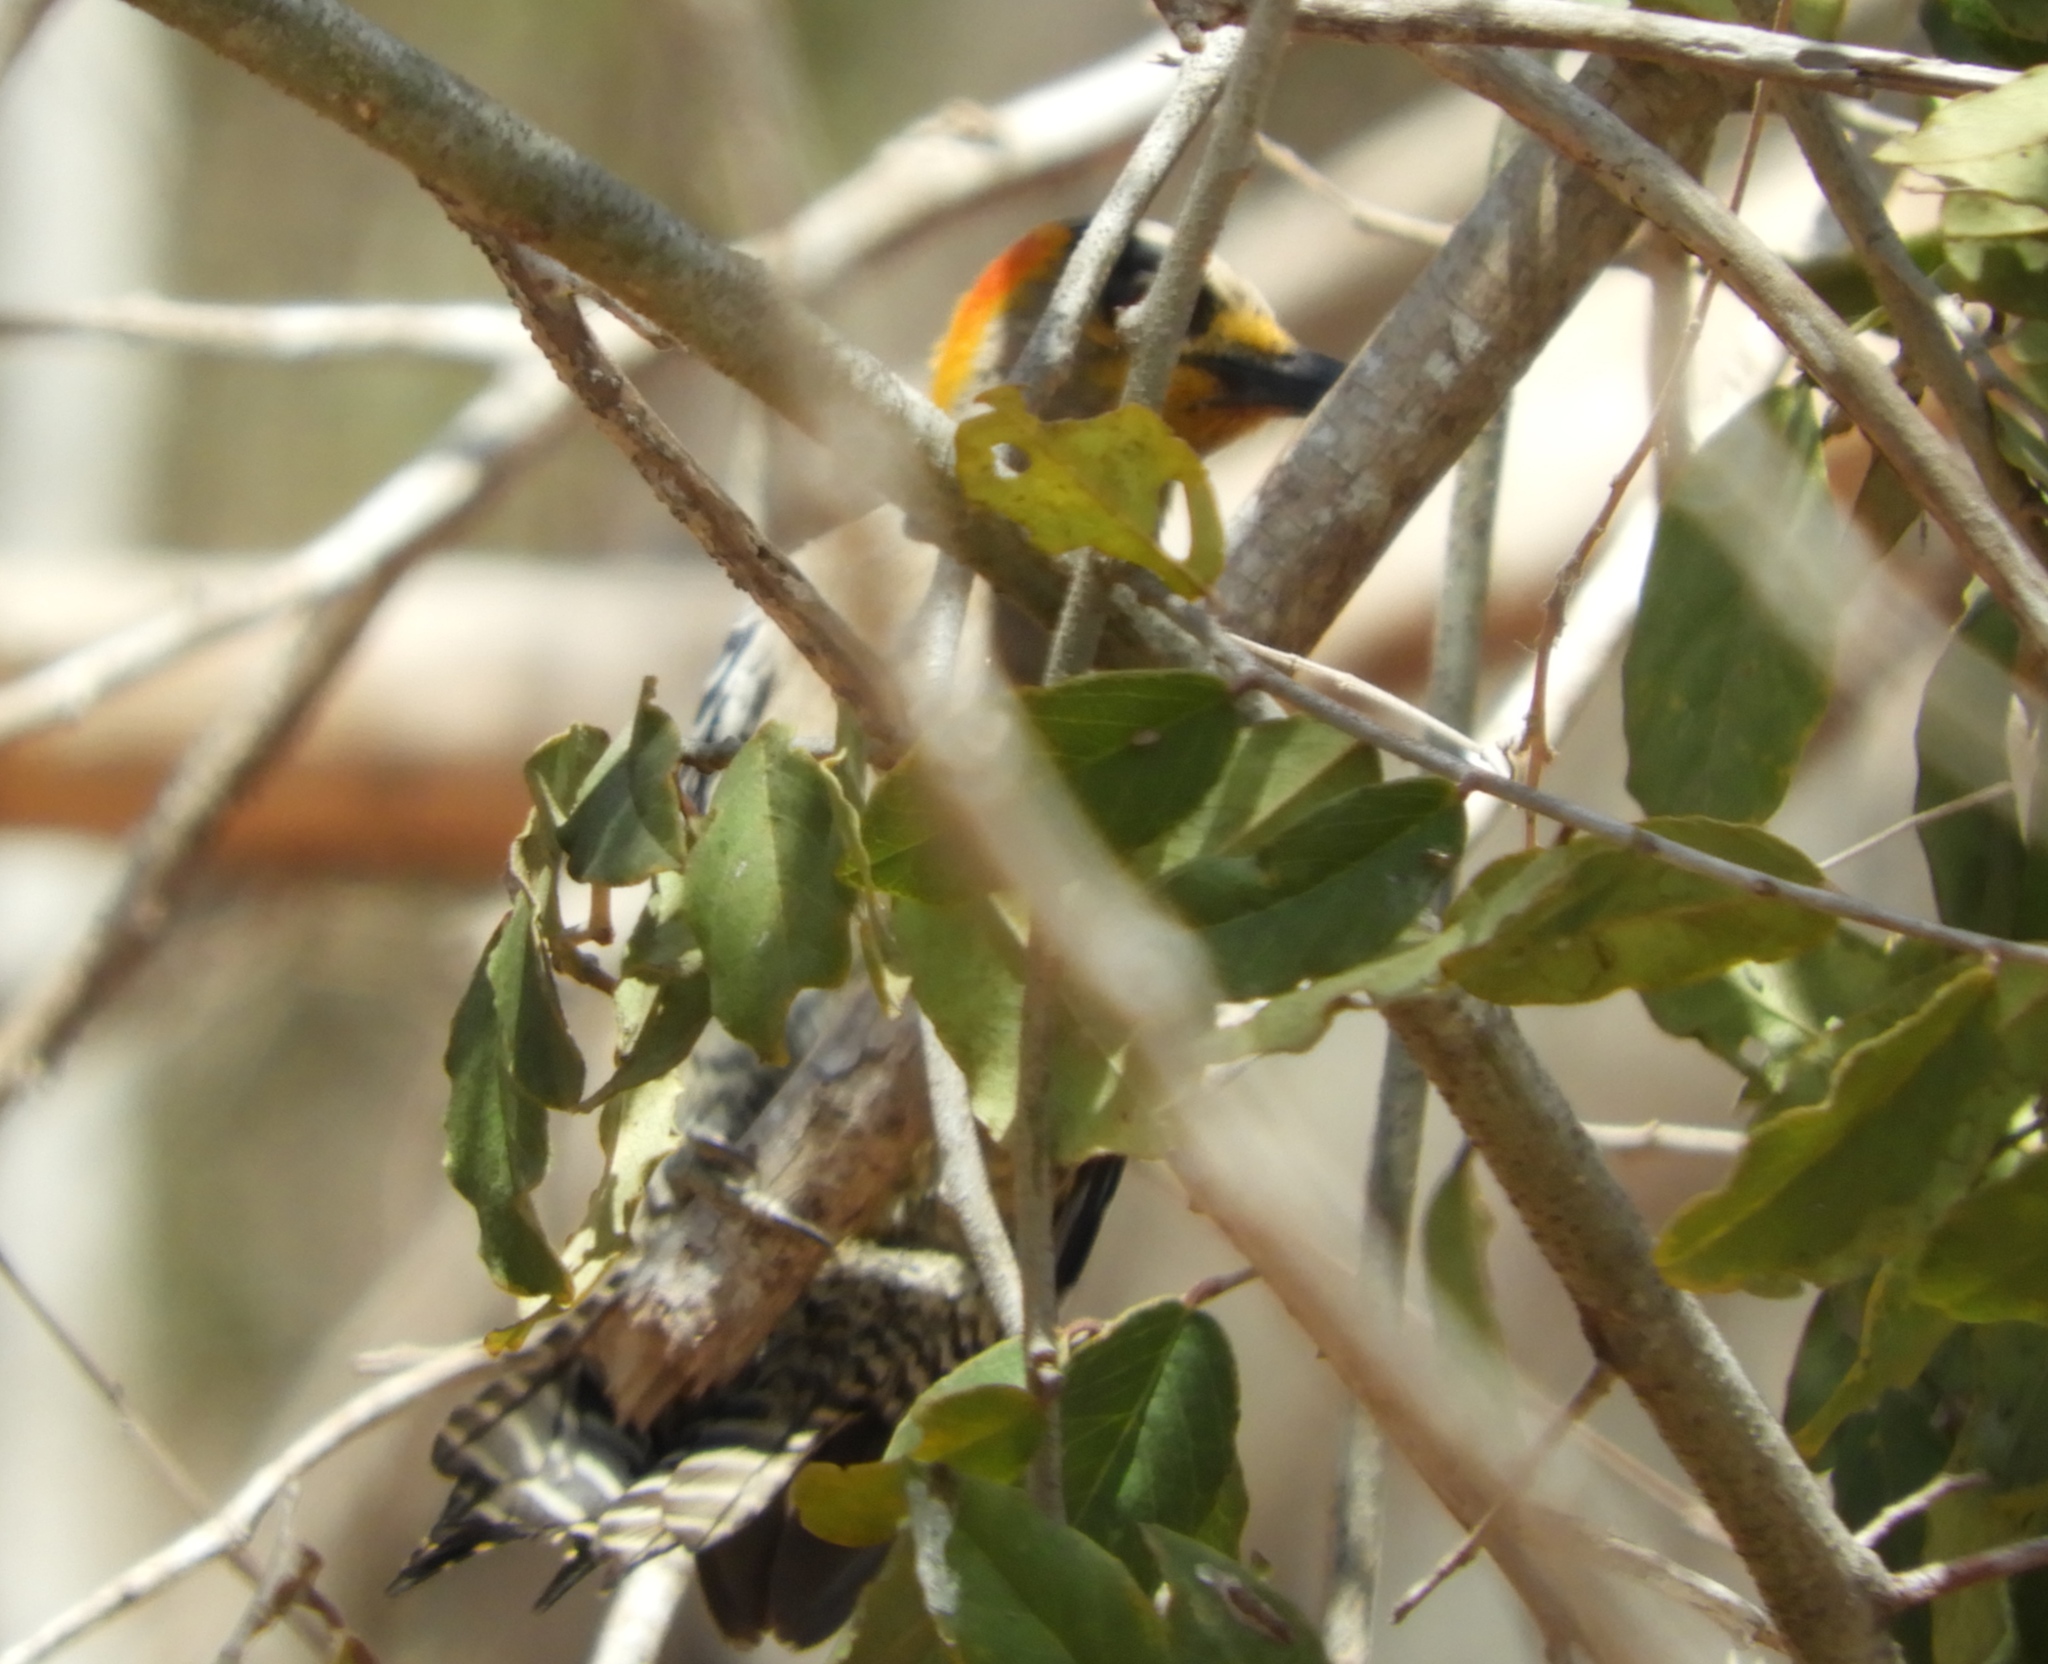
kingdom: Animalia
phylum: Chordata
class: Aves
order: Piciformes
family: Picidae
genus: Melanerpes
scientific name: Melanerpes chrysogenys
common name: Golden-cheeked woodpecker
